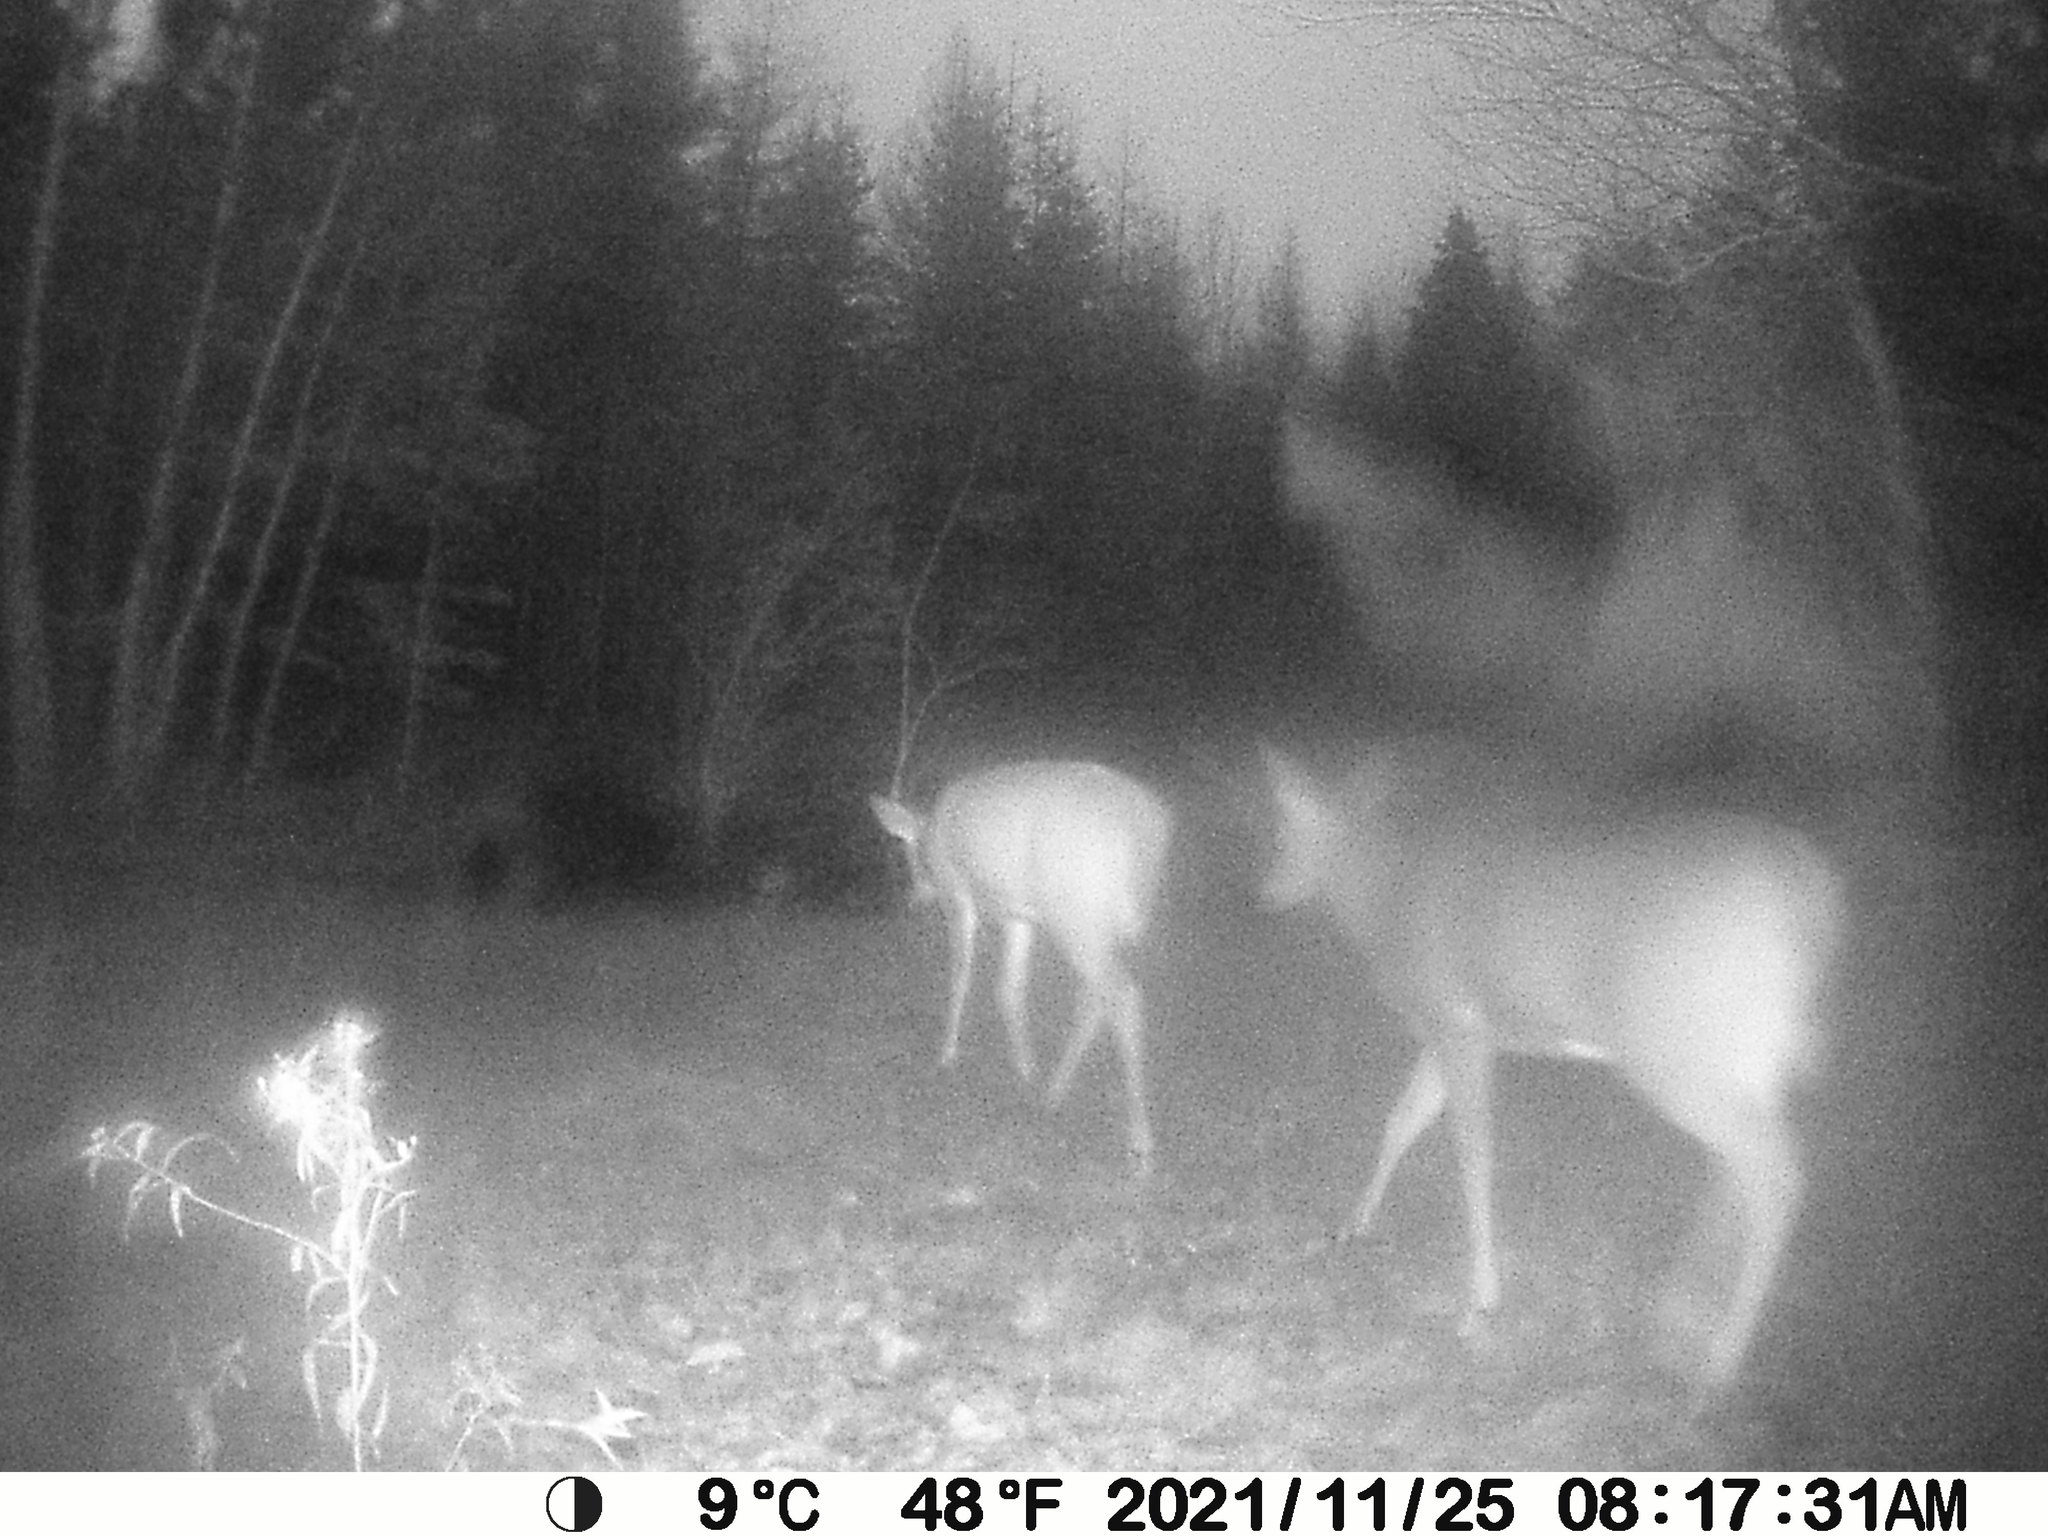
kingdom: Animalia
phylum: Chordata
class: Mammalia
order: Artiodactyla
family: Cervidae
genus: Odocoileus
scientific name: Odocoileus virginianus
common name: White-tailed deer
